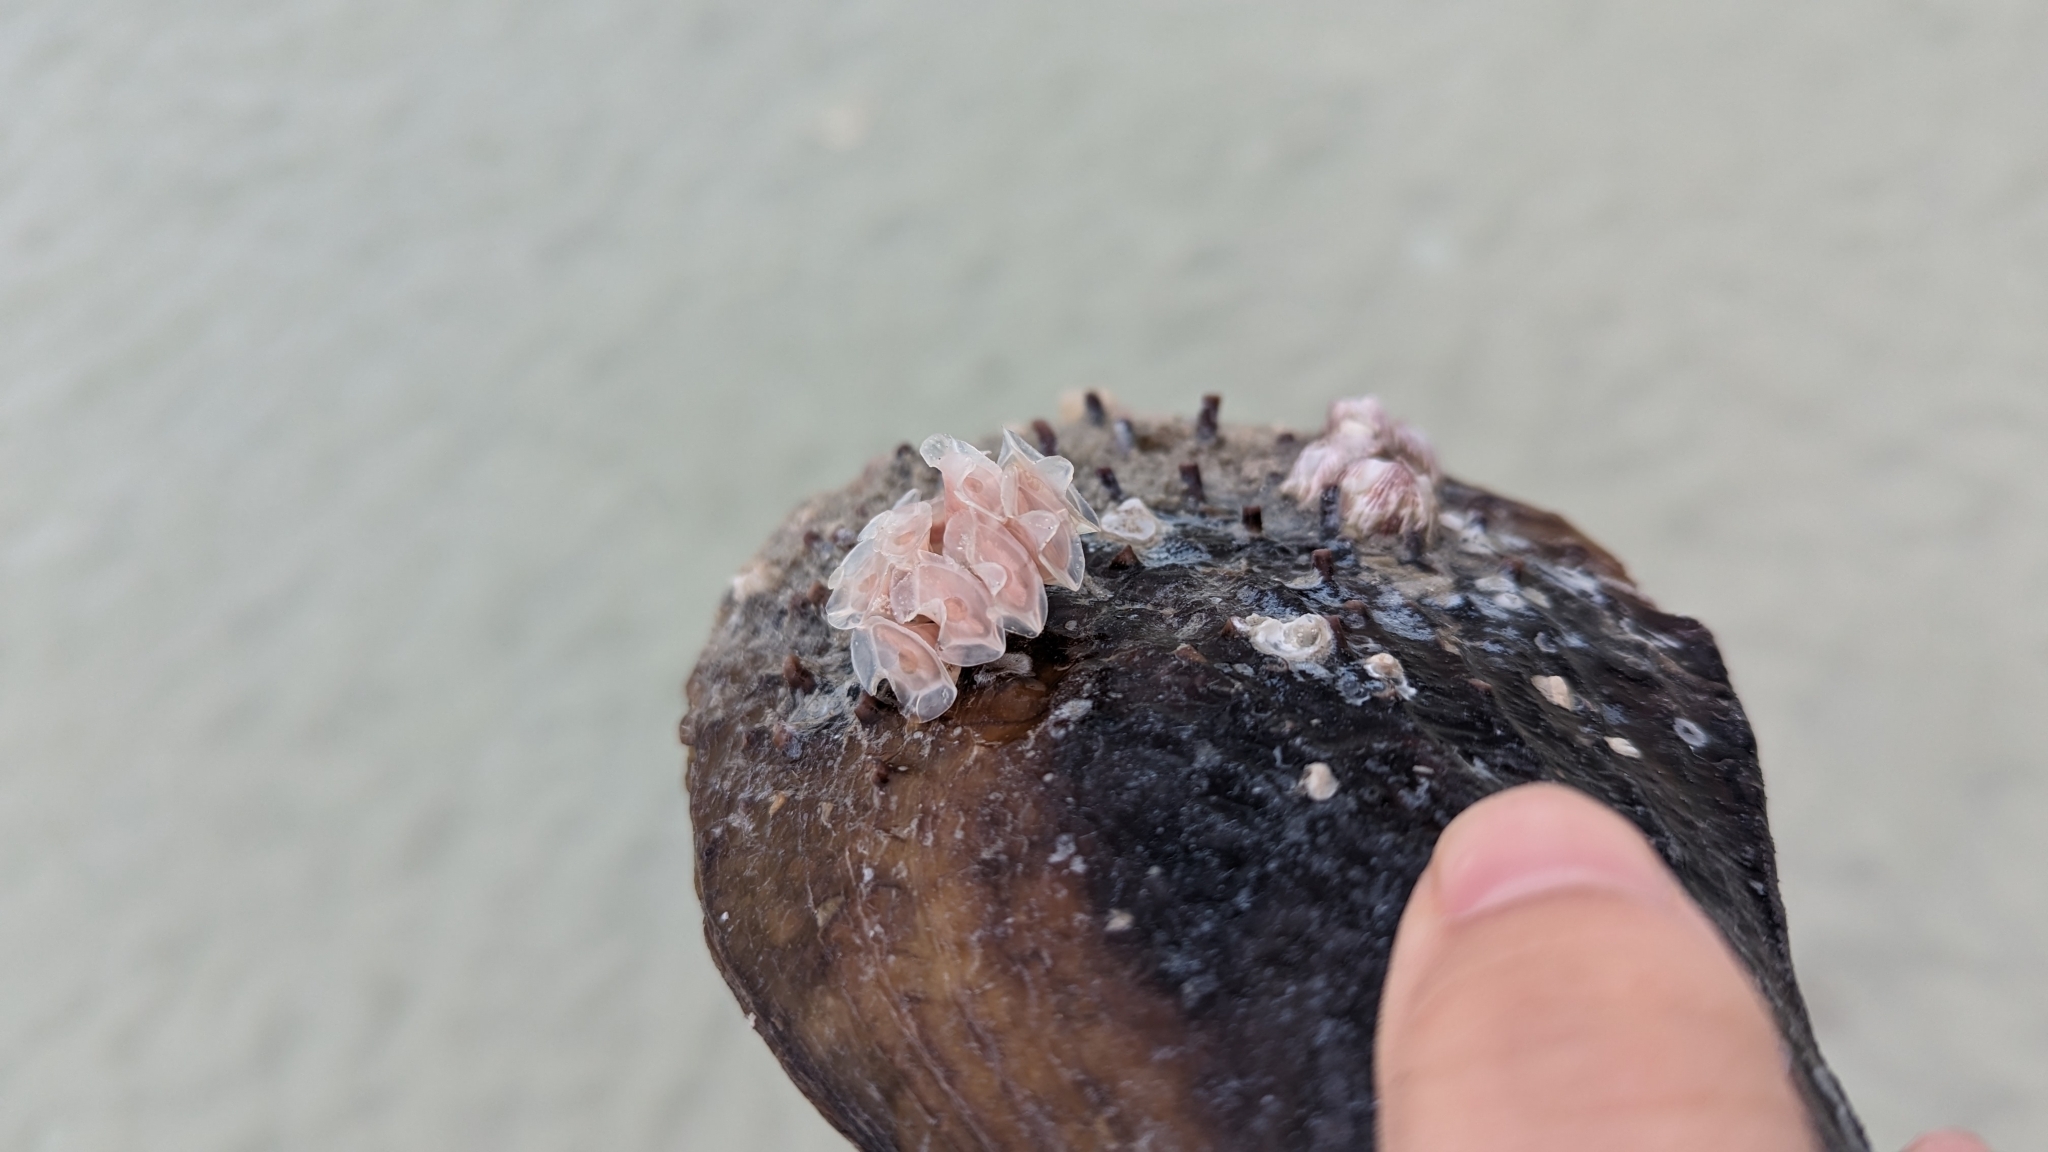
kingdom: Animalia
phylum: Mollusca
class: Gastropoda
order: Neogastropoda
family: Fasciolariidae
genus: Cinctura
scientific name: Cinctura hunteria
